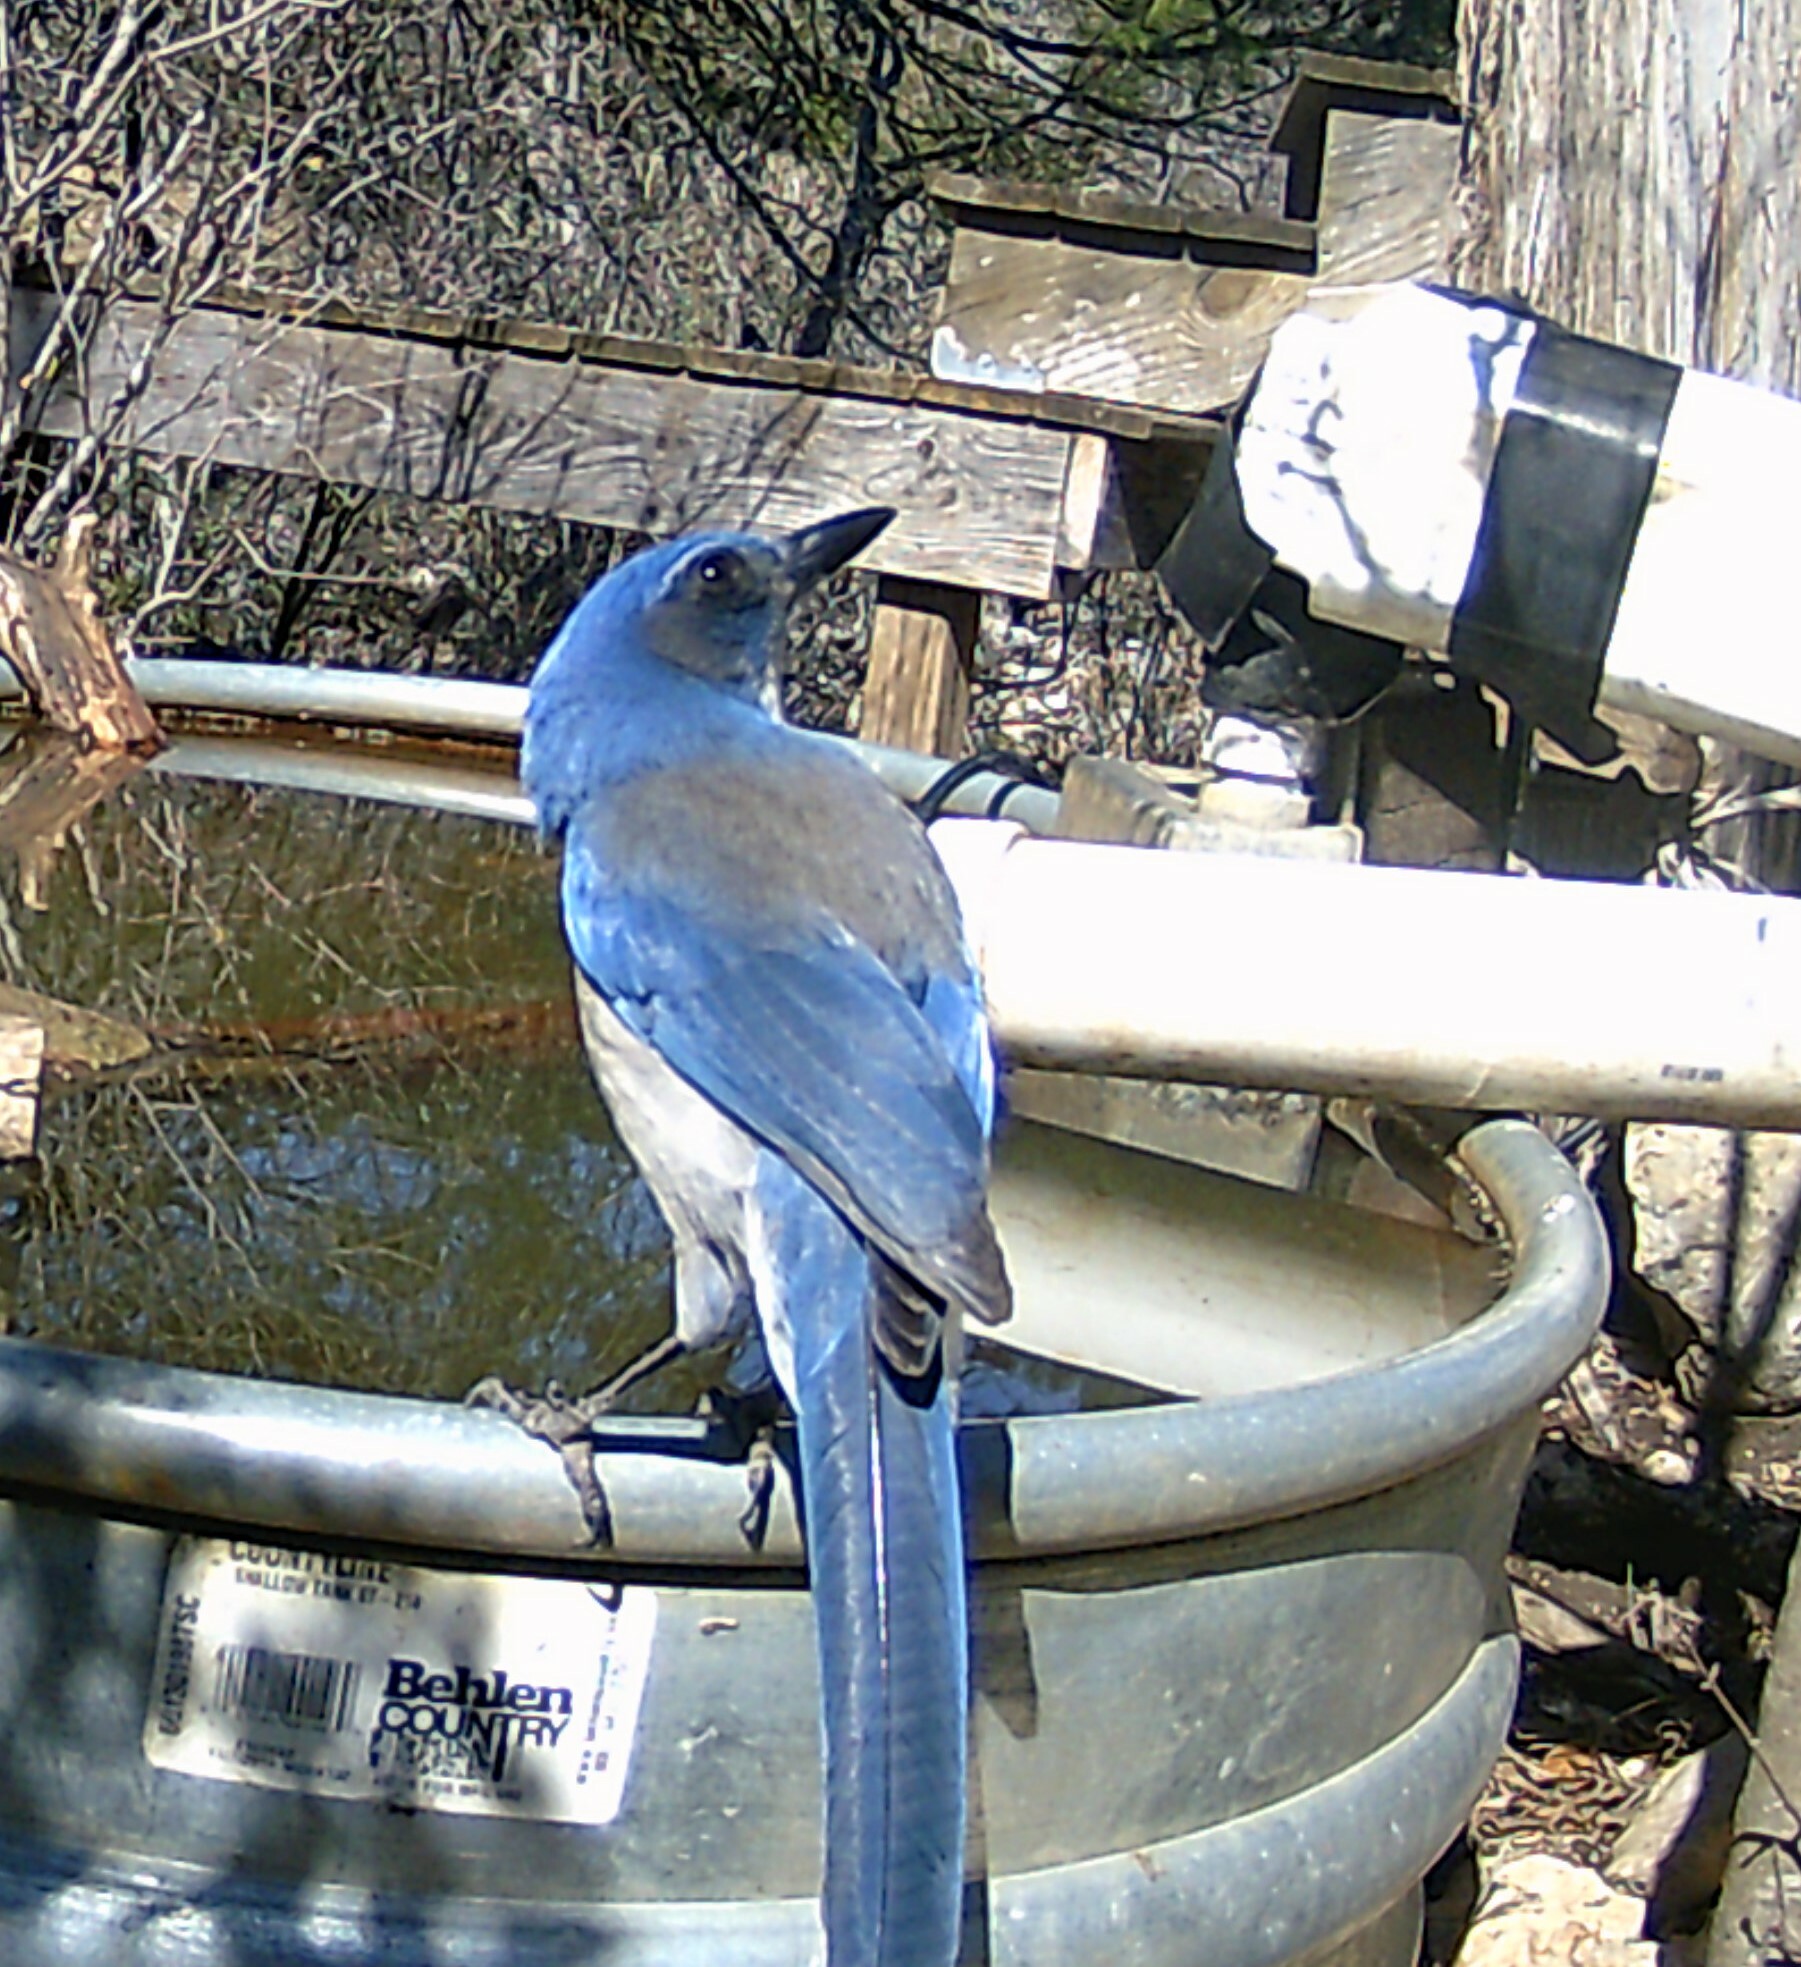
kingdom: Animalia
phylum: Chordata
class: Aves
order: Passeriformes
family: Corvidae
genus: Aphelocoma
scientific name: Aphelocoma woodhouseii
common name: Woodhouse's scrub-jay
